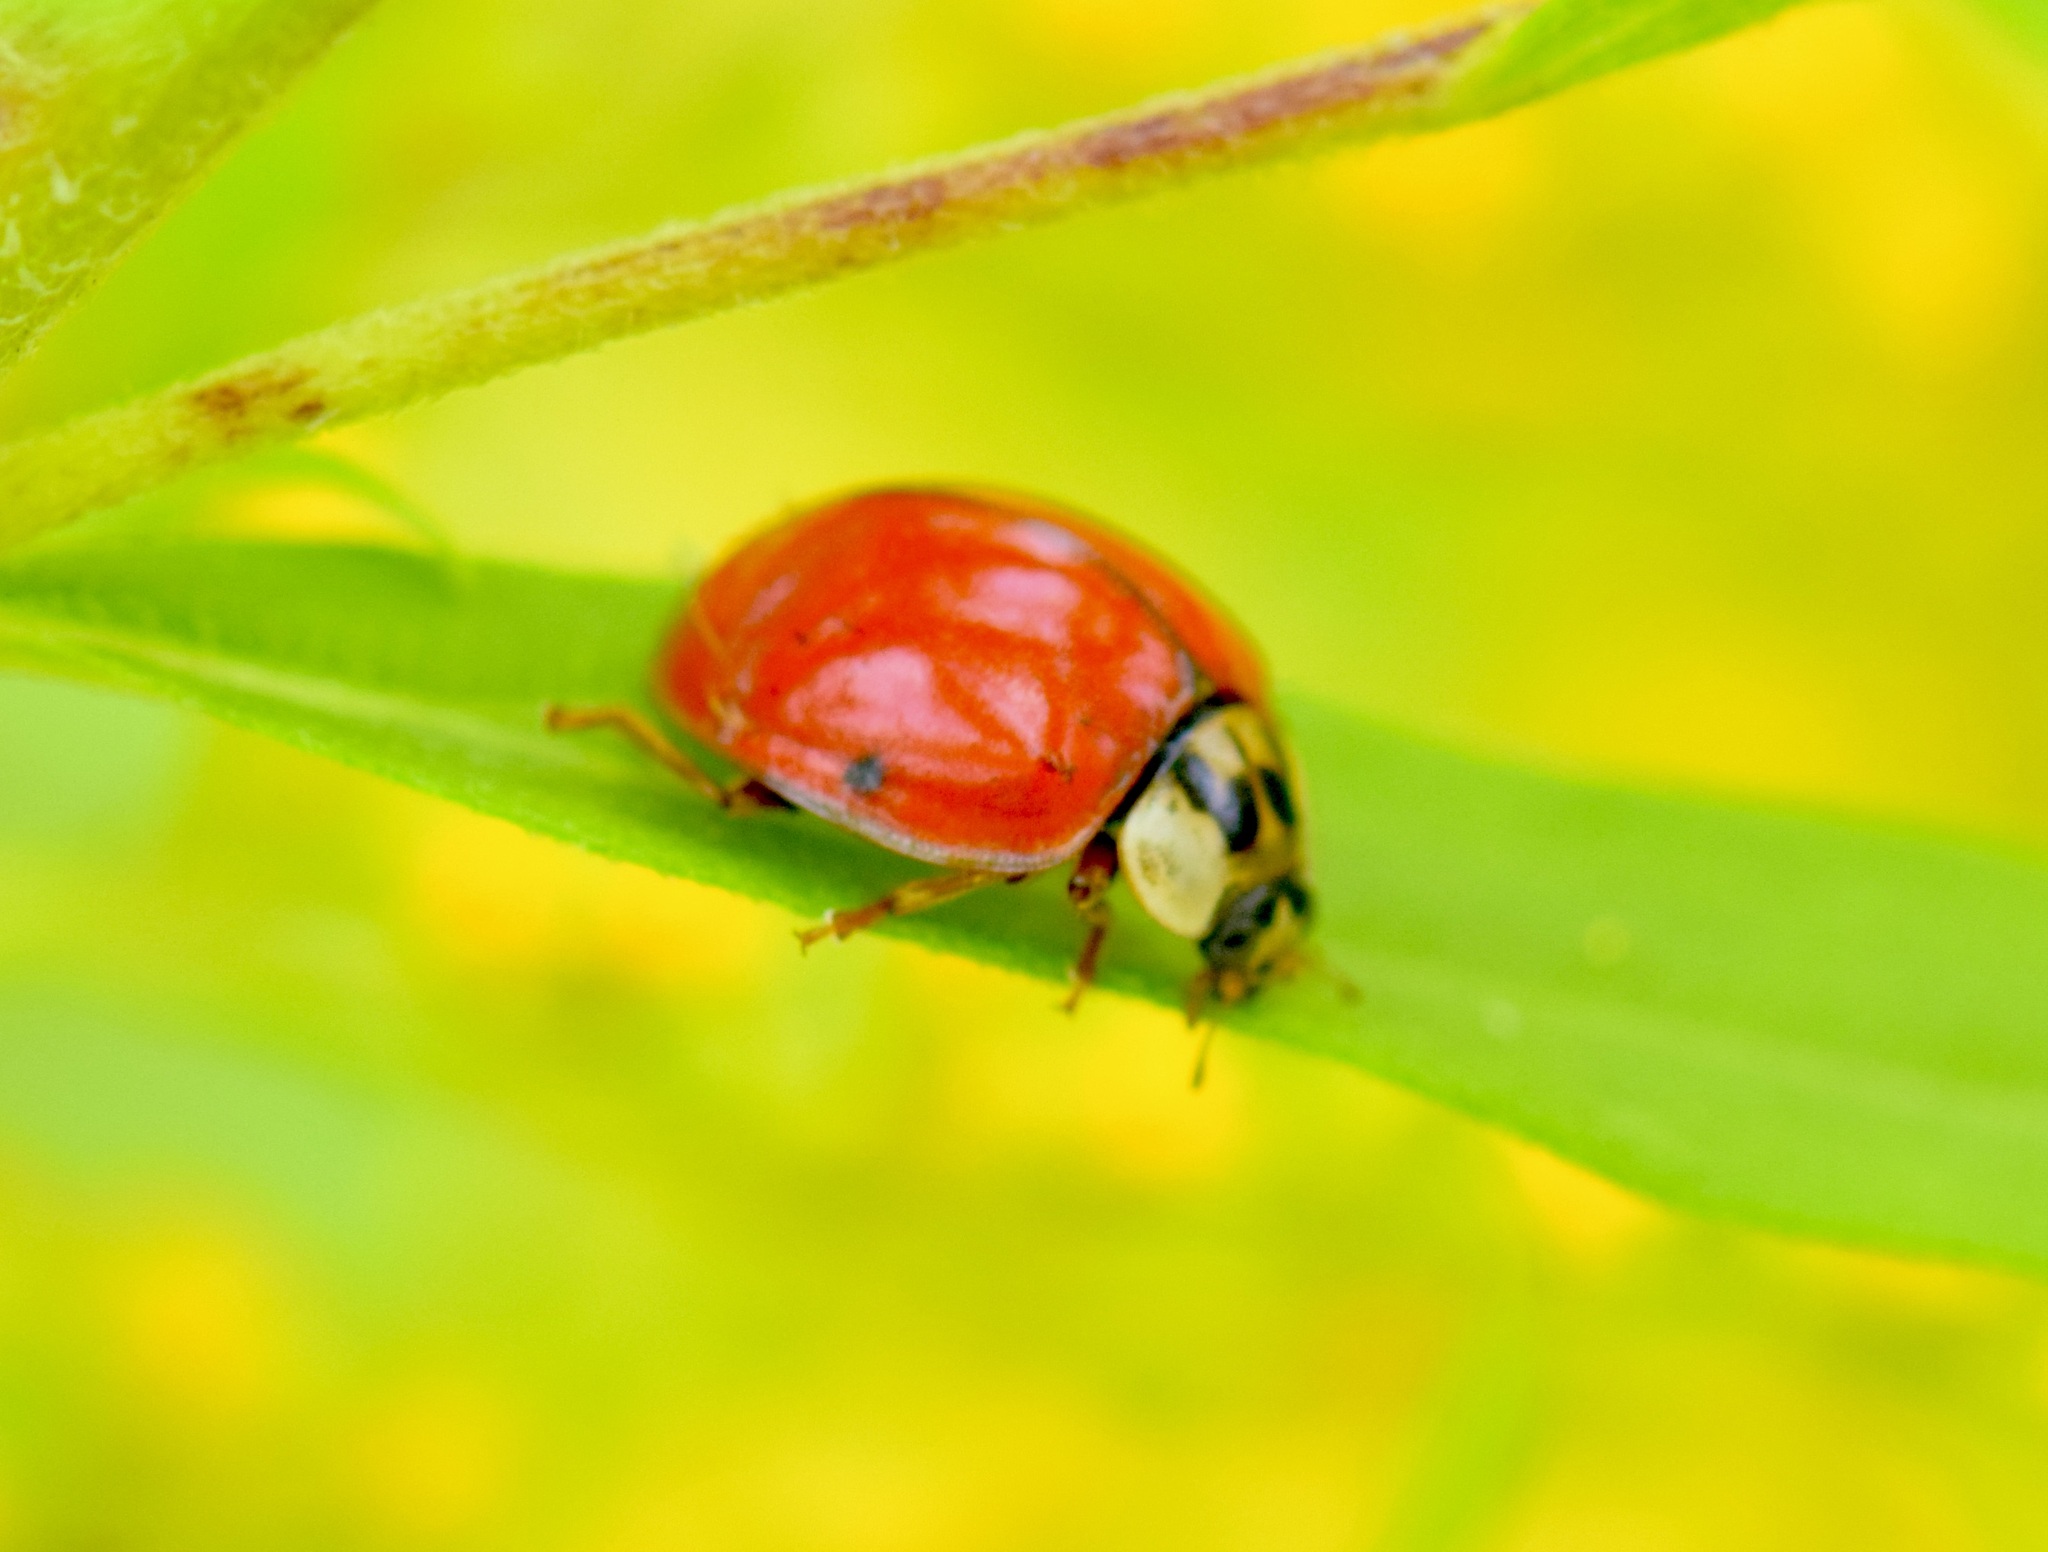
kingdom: Animalia
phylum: Arthropoda
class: Insecta
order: Coleoptera
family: Coccinellidae
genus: Harmonia
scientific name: Harmonia axyridis
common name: Harlequin ladybird
